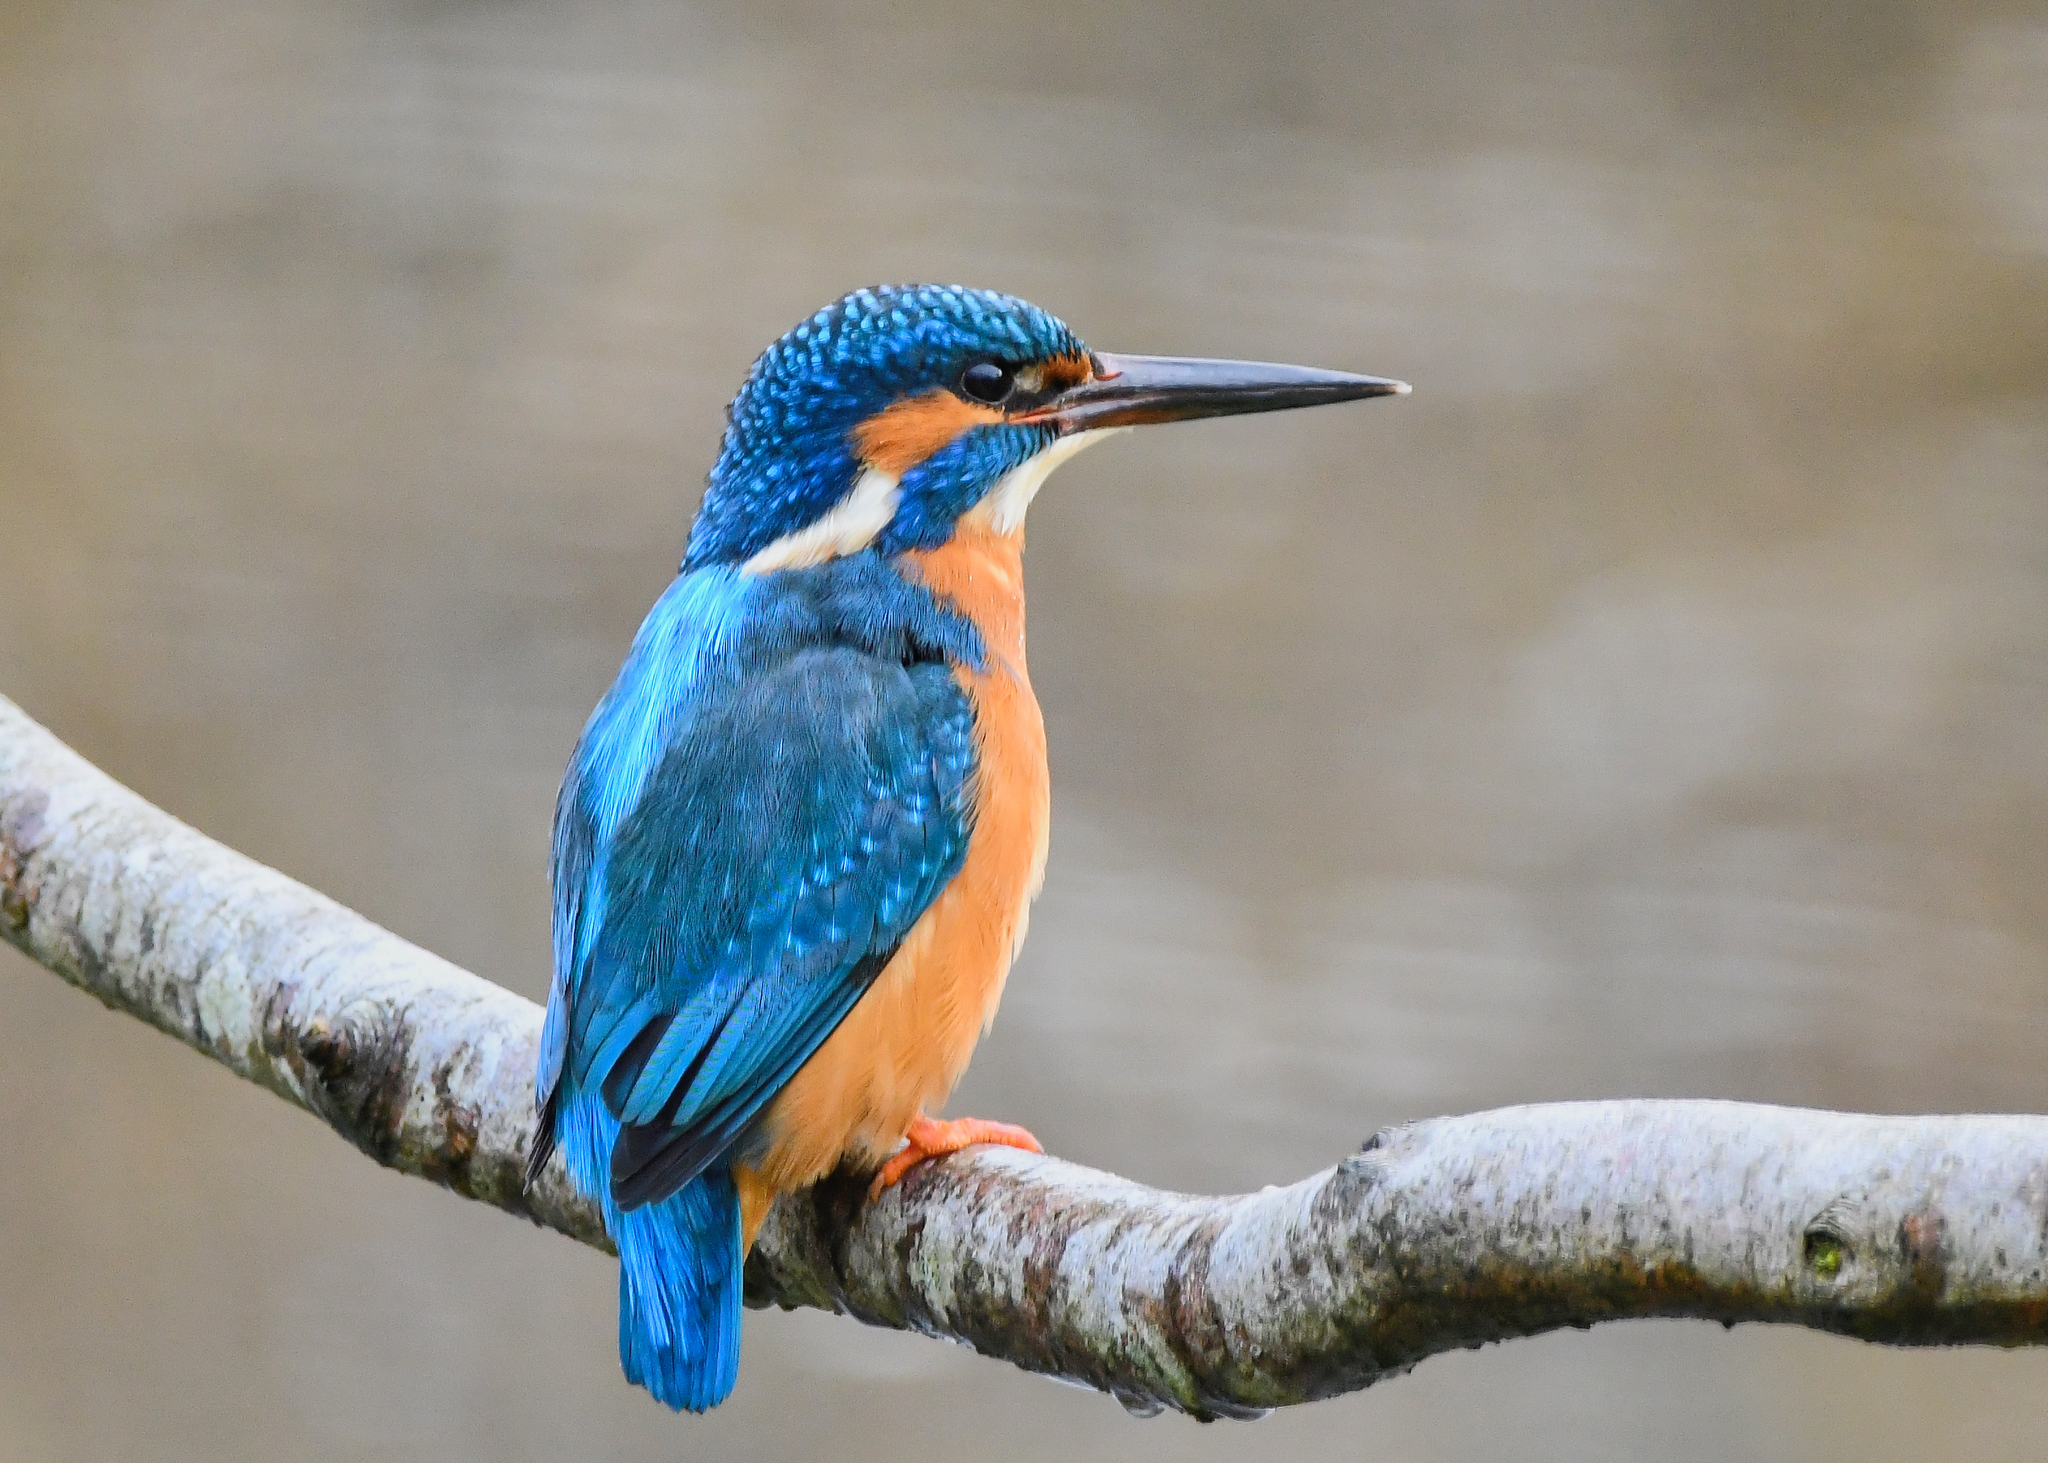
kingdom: Animalia
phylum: Chordata
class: Aves
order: Coraciiformes
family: Alcedinidae
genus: Alcedo
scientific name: Alcedo atthis
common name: Common kingfisher
